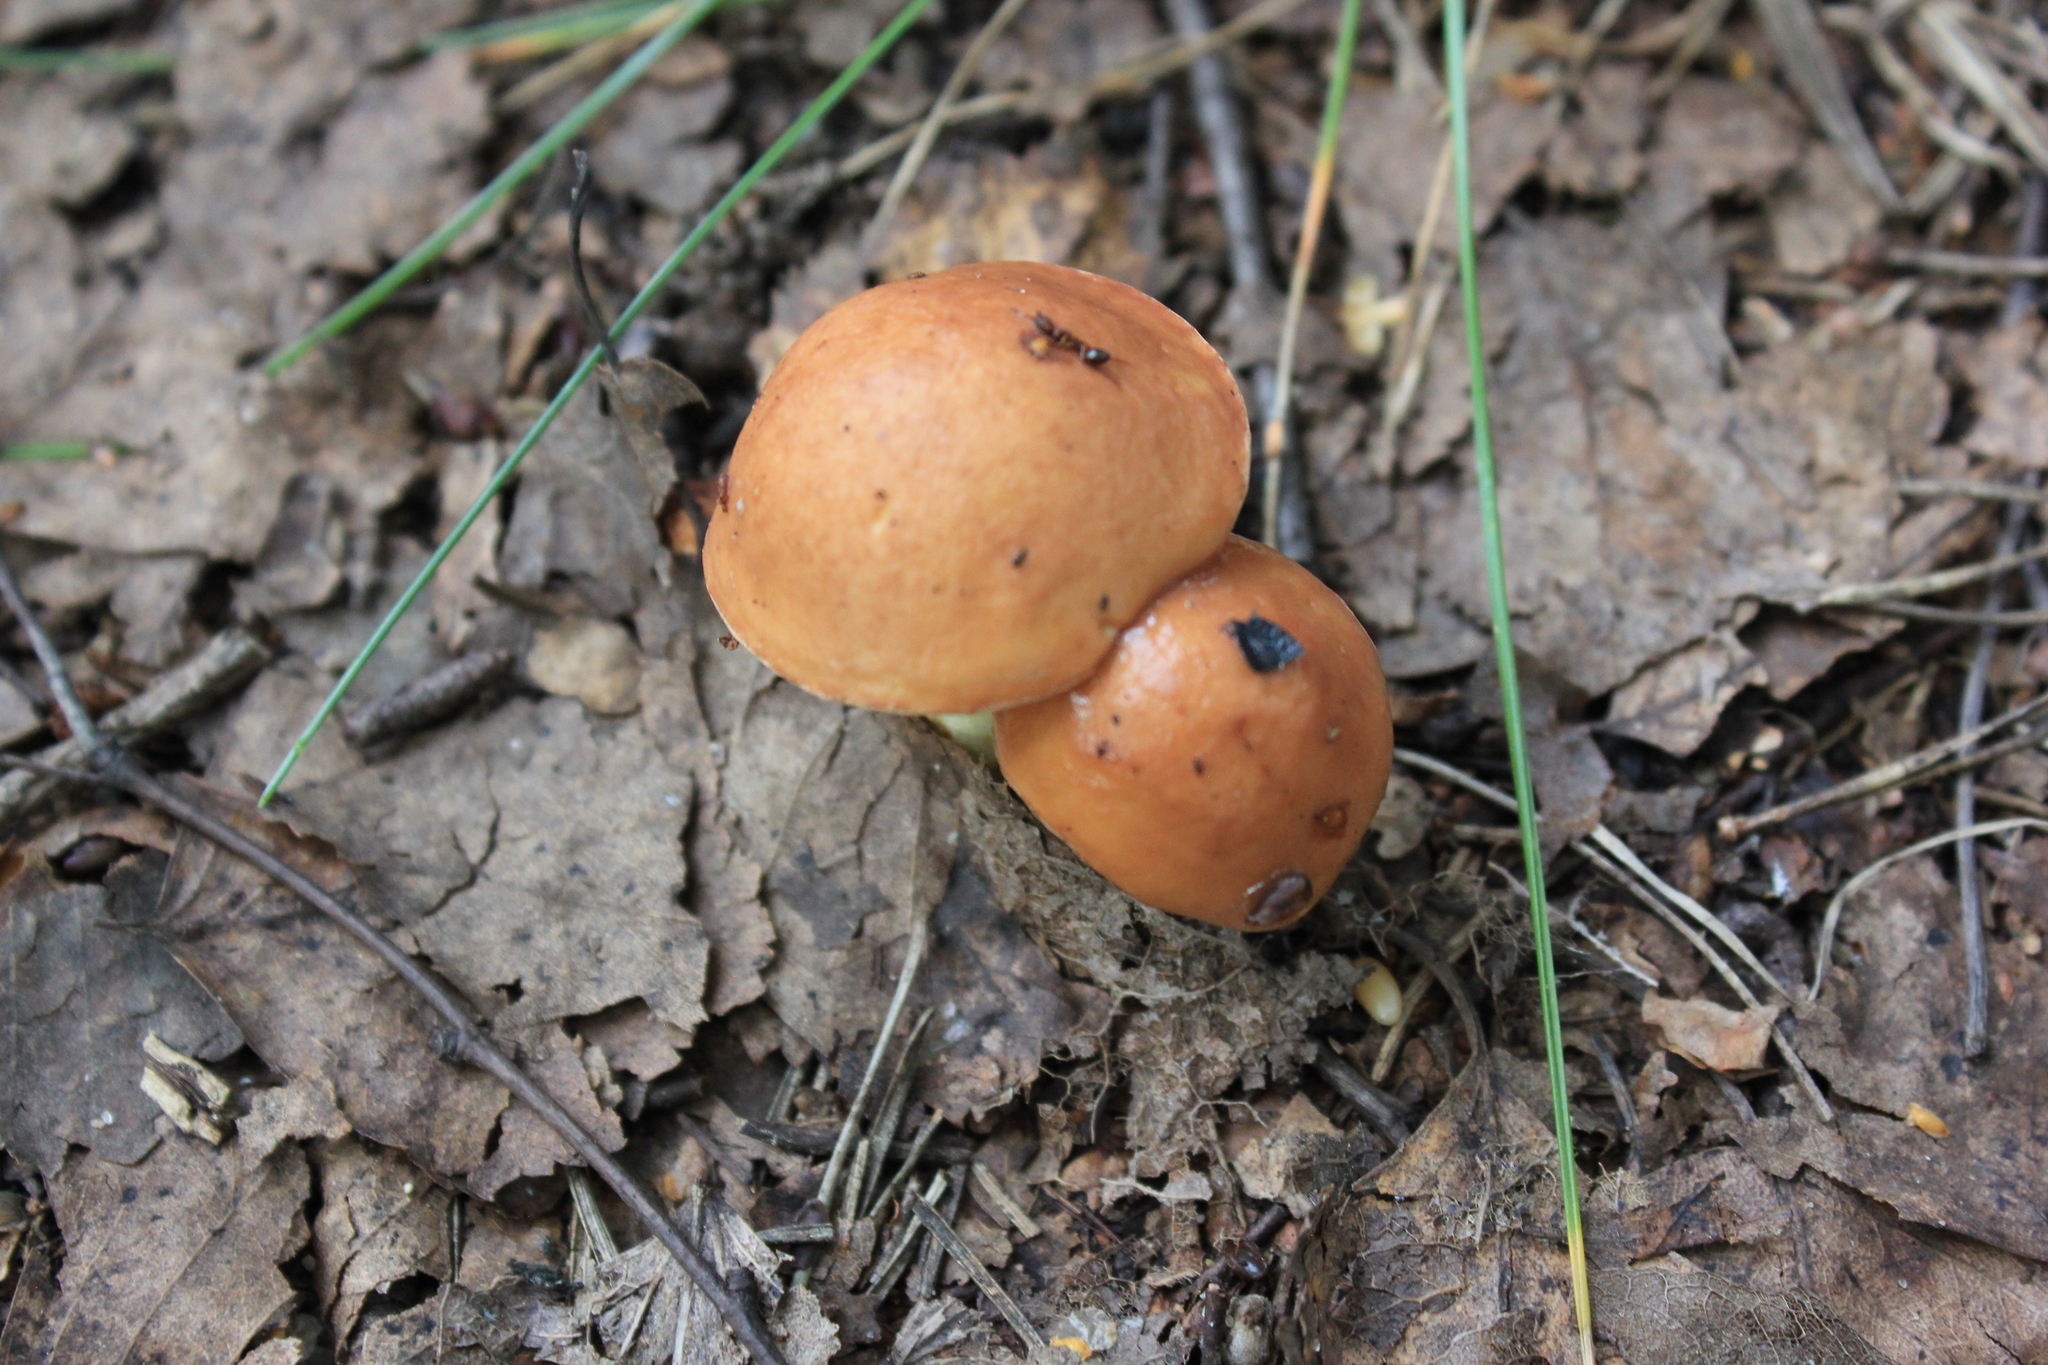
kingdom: Fungi
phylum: Basidiomycota
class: Agaricomycetes
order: Boletales
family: Suillaceae
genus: Suillus
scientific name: Suillus luteus
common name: Slippery jack
